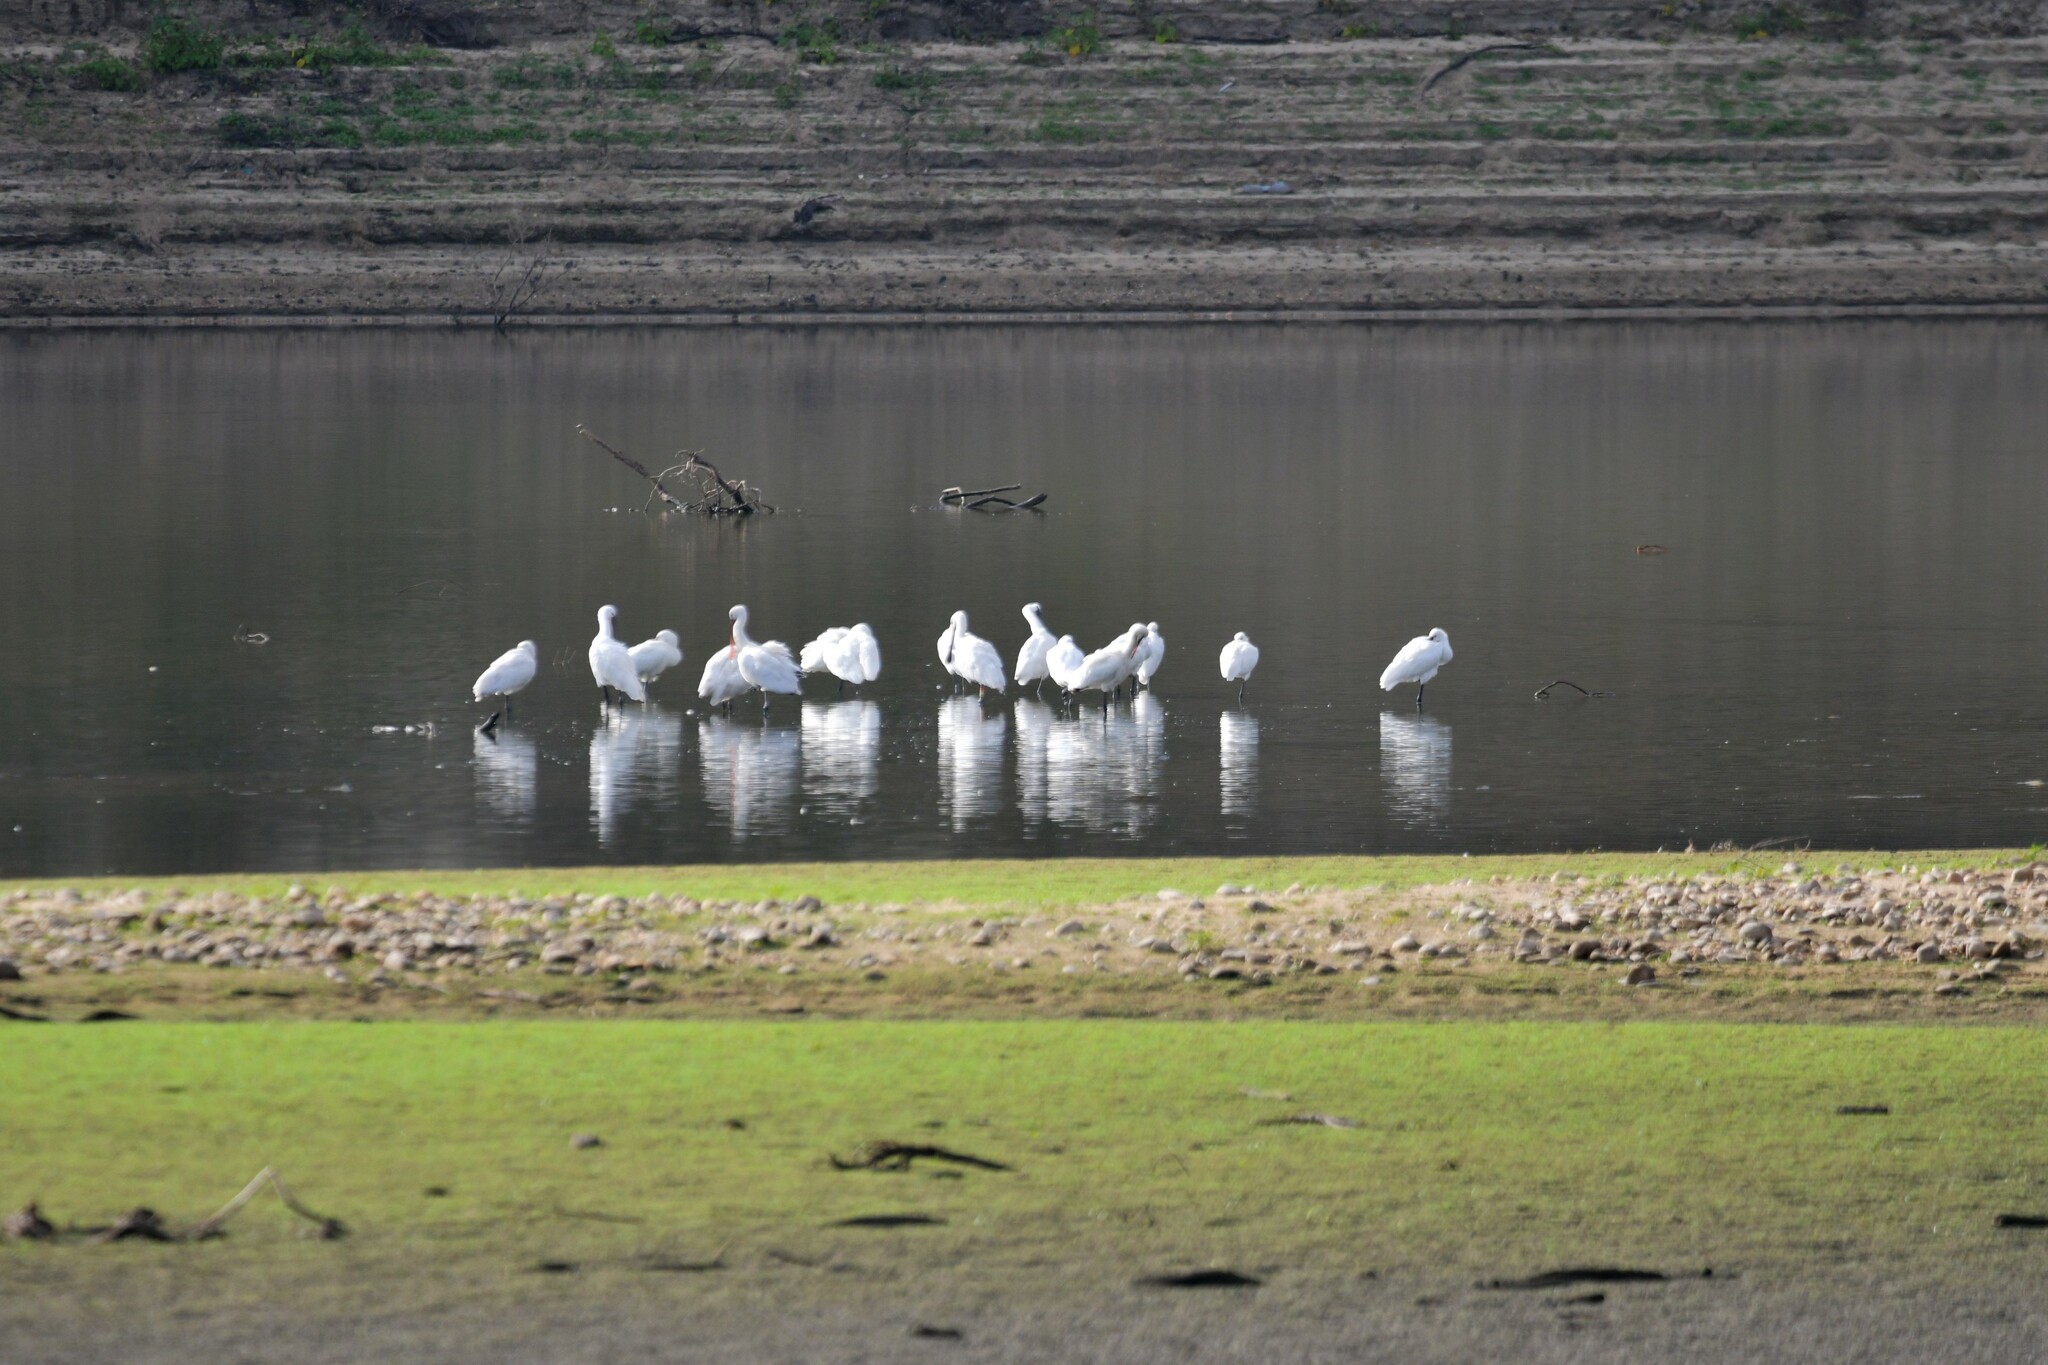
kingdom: Animalia
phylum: Chordata
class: Aves
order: Pelecaniformes
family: Threskiornithidae
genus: Platalea
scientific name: Platalea leucorodia
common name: Eurasian spoonbill
